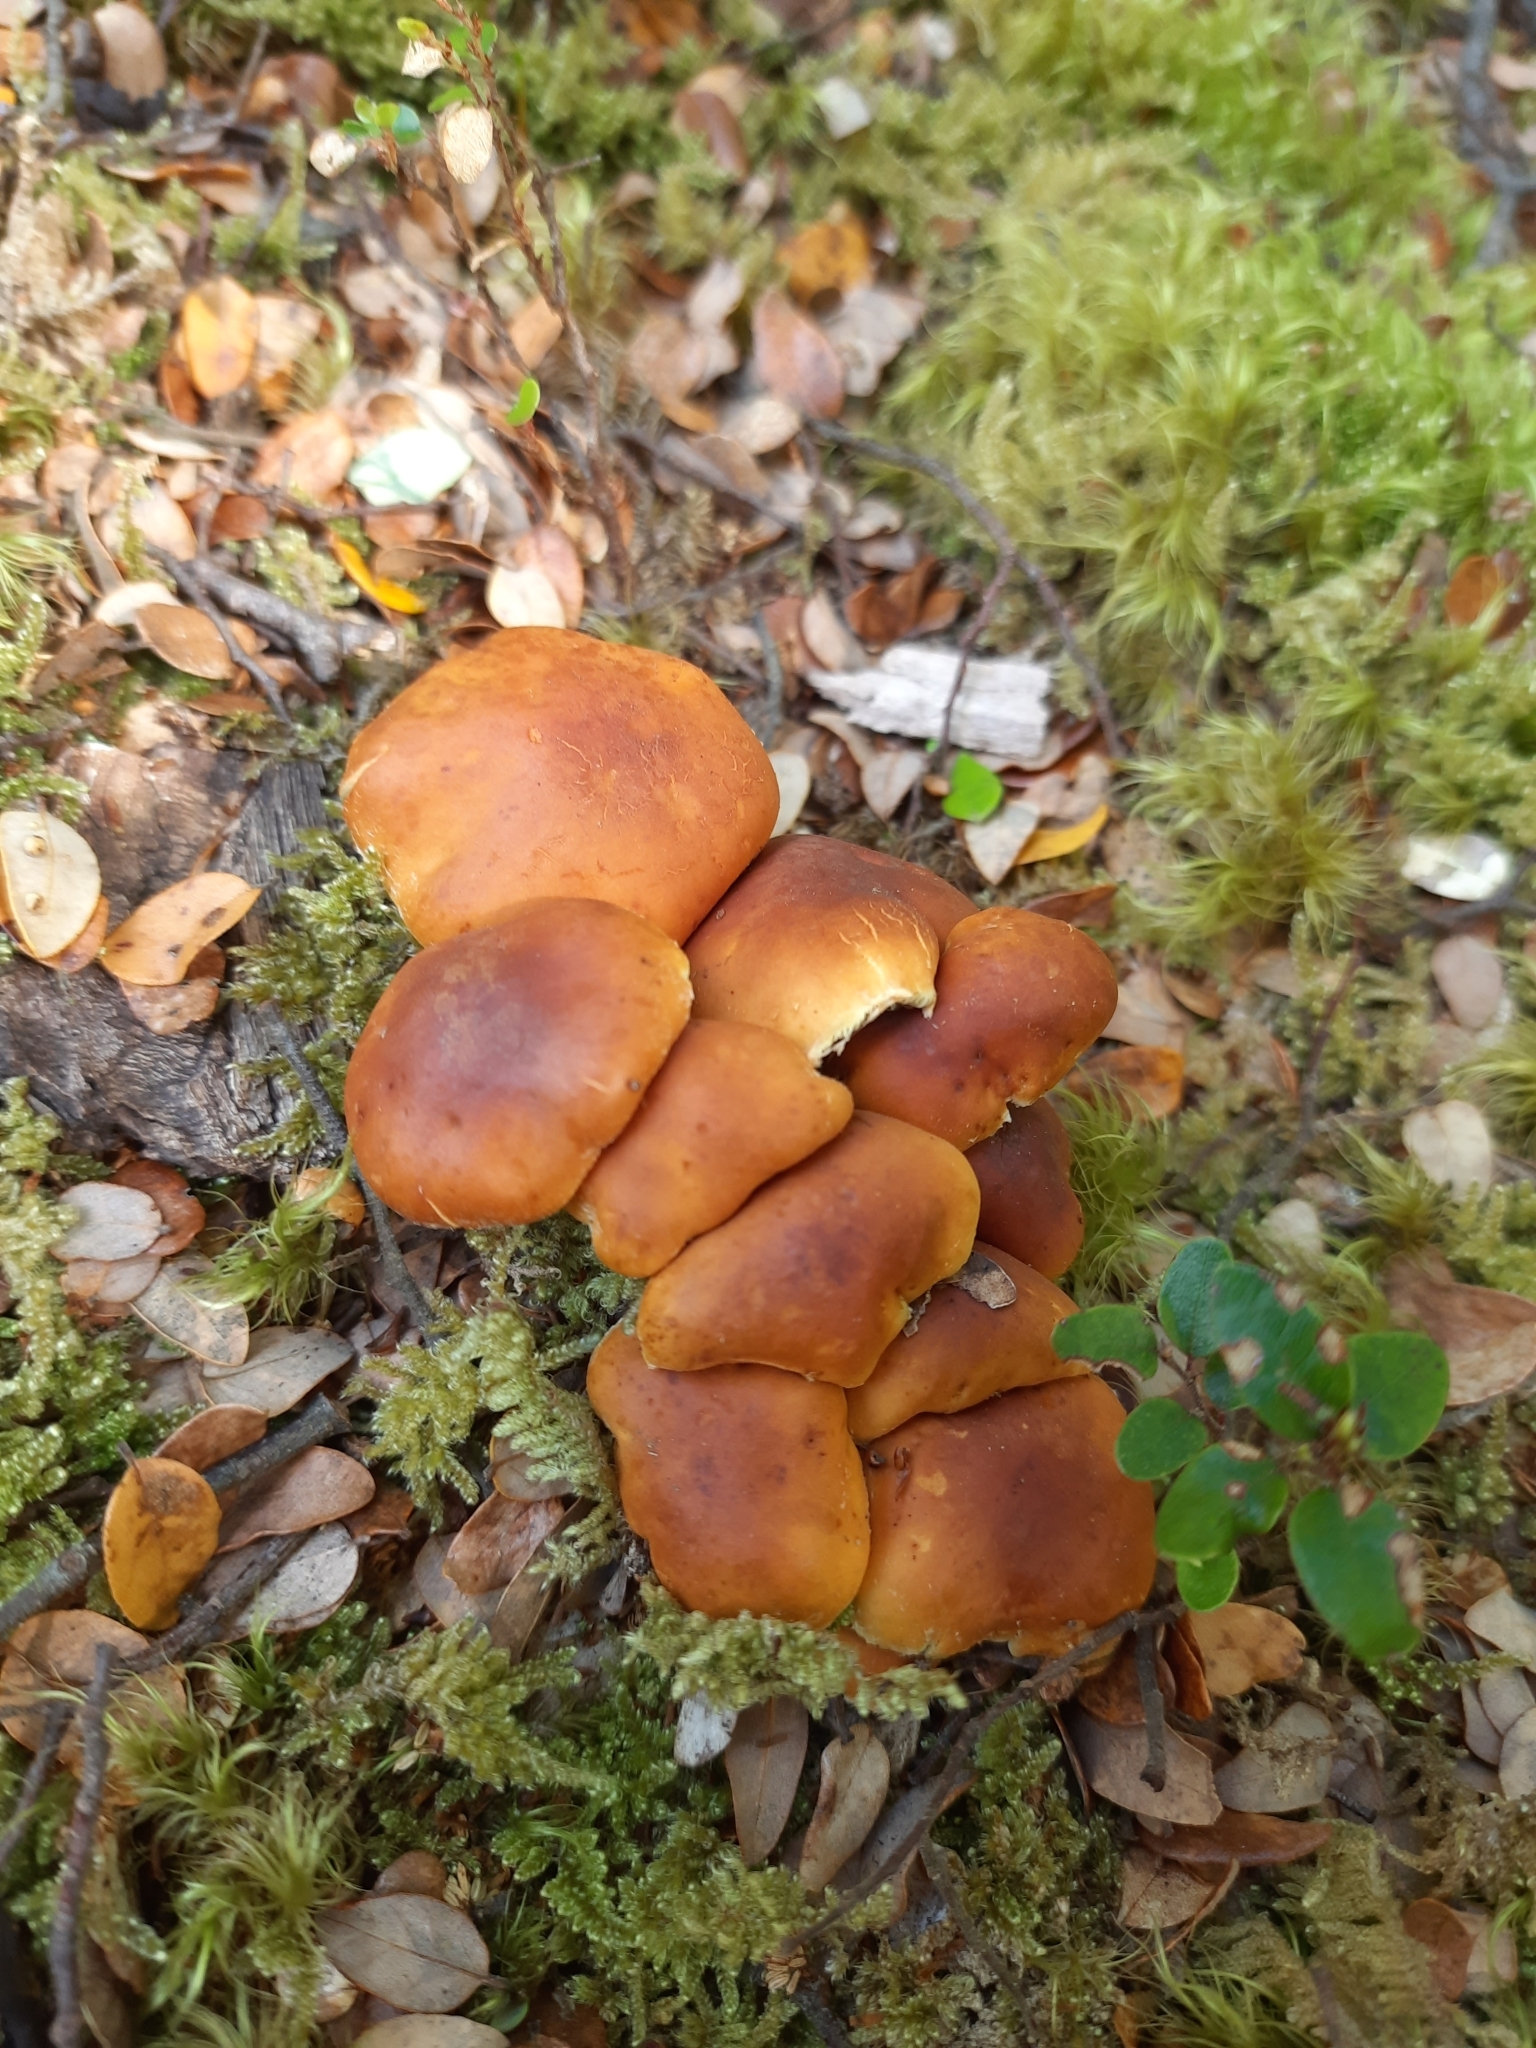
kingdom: Fungi
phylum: Basidiomycota
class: Agaricomycetes
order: Agaricales
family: Strophariaceae
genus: Hypholoma
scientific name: Hypholoma australianum
